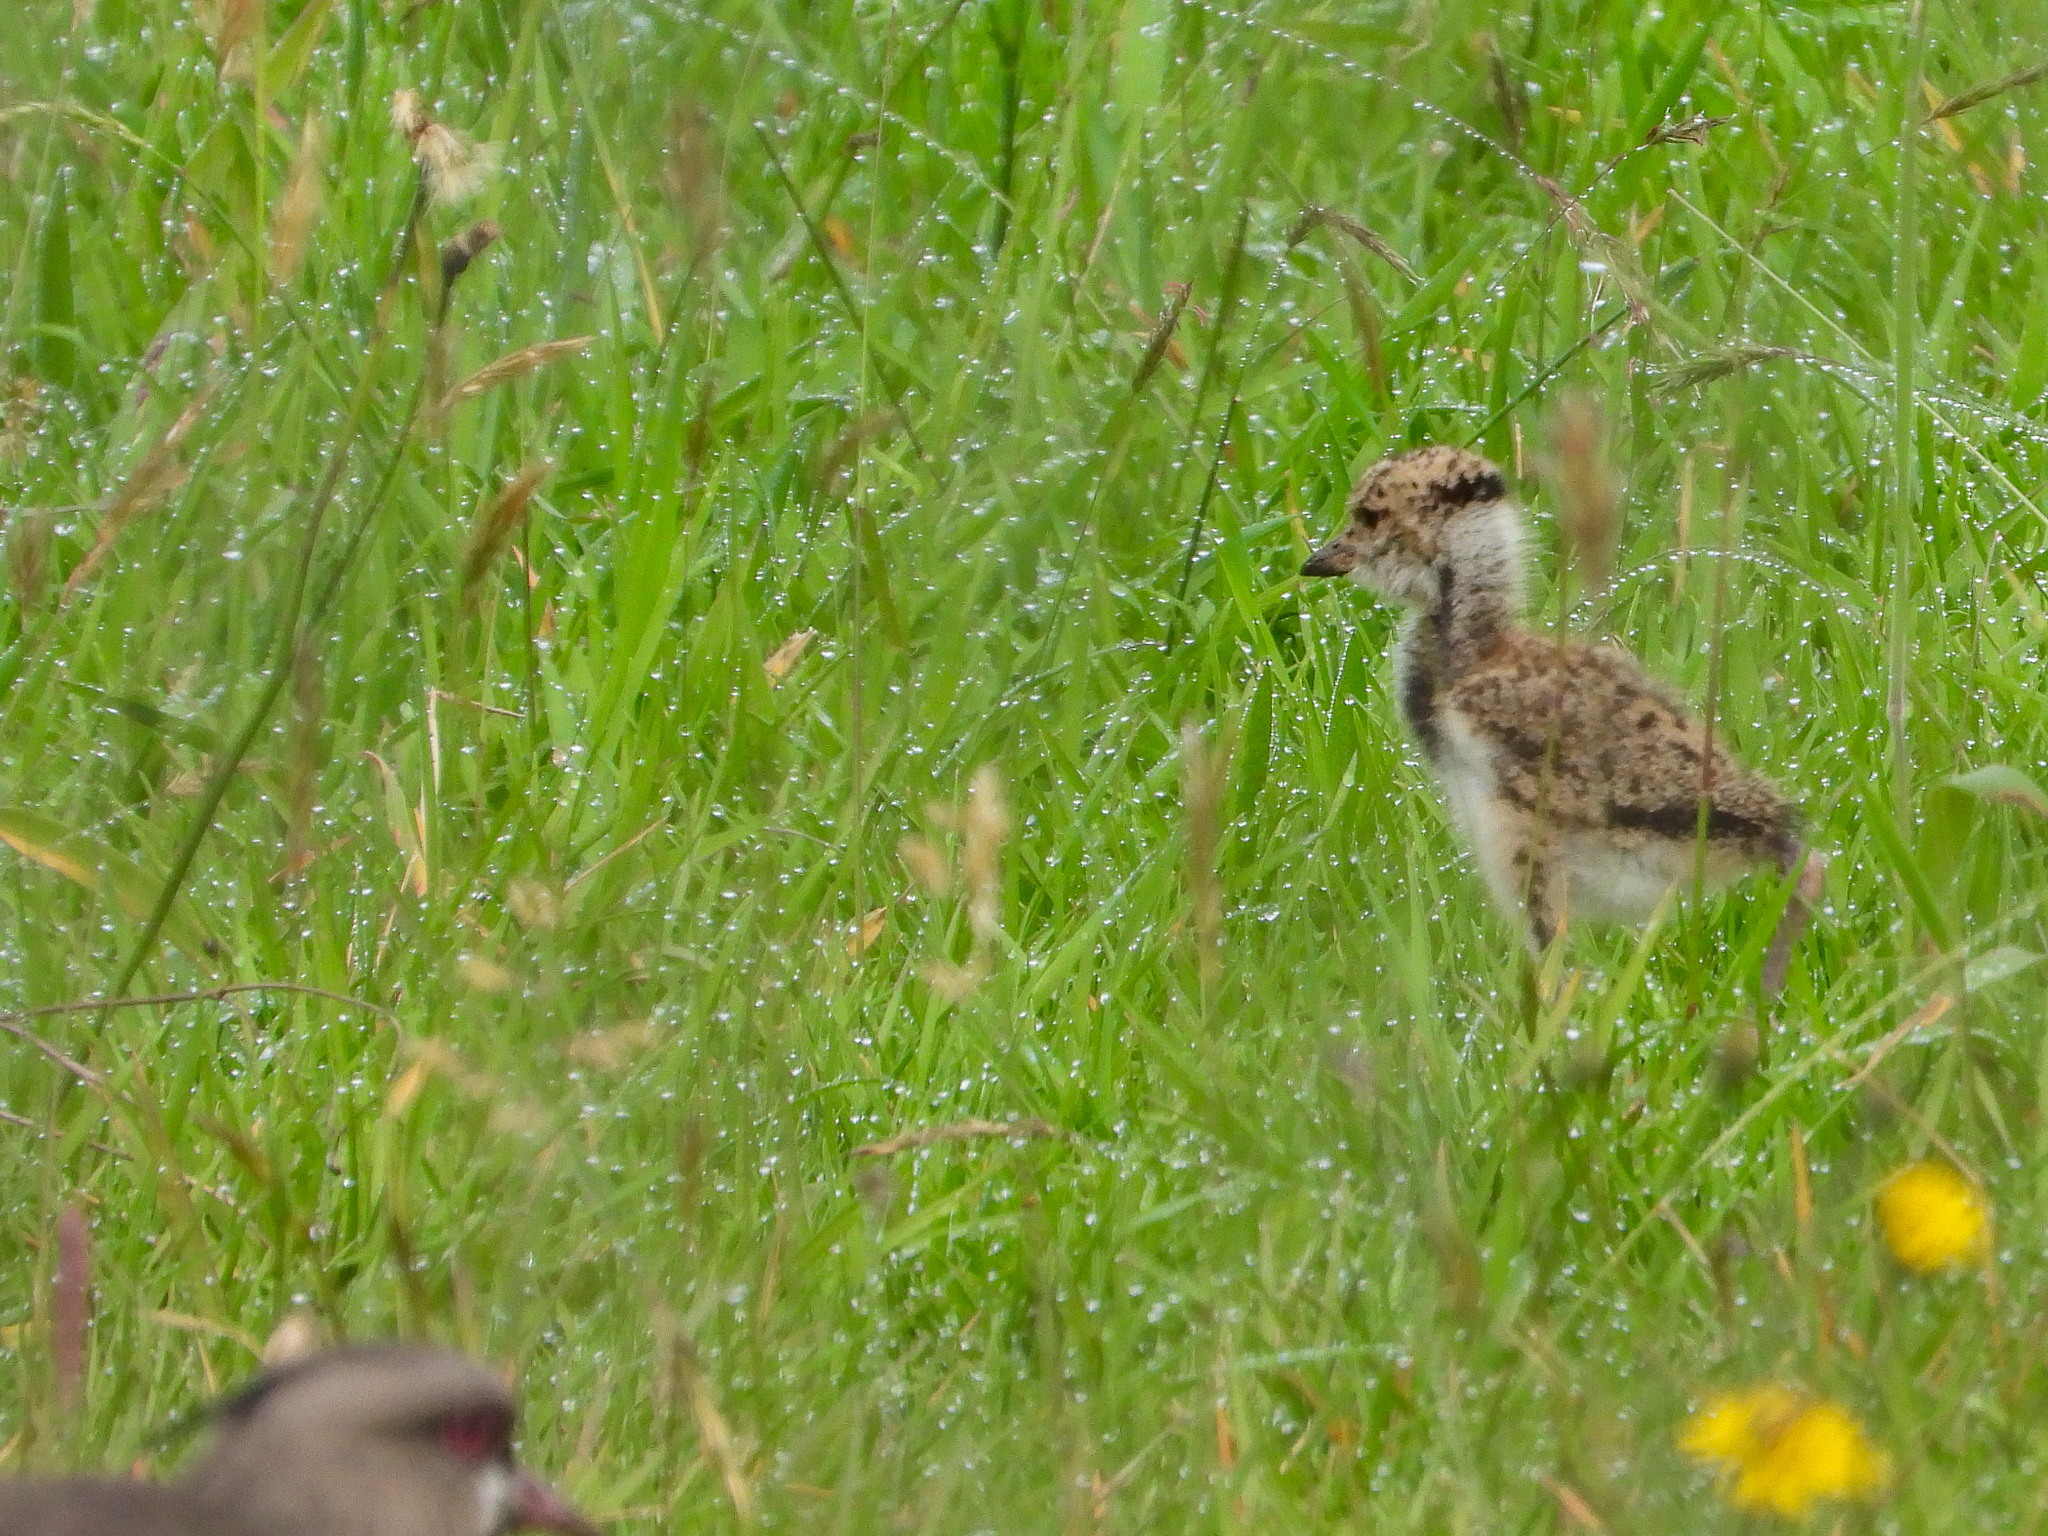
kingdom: Animalia
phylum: Chordata
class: Aves
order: Charadriiformes
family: Charadriidae
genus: Vanellus
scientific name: Vanellus chilensis
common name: Southern lapwing
